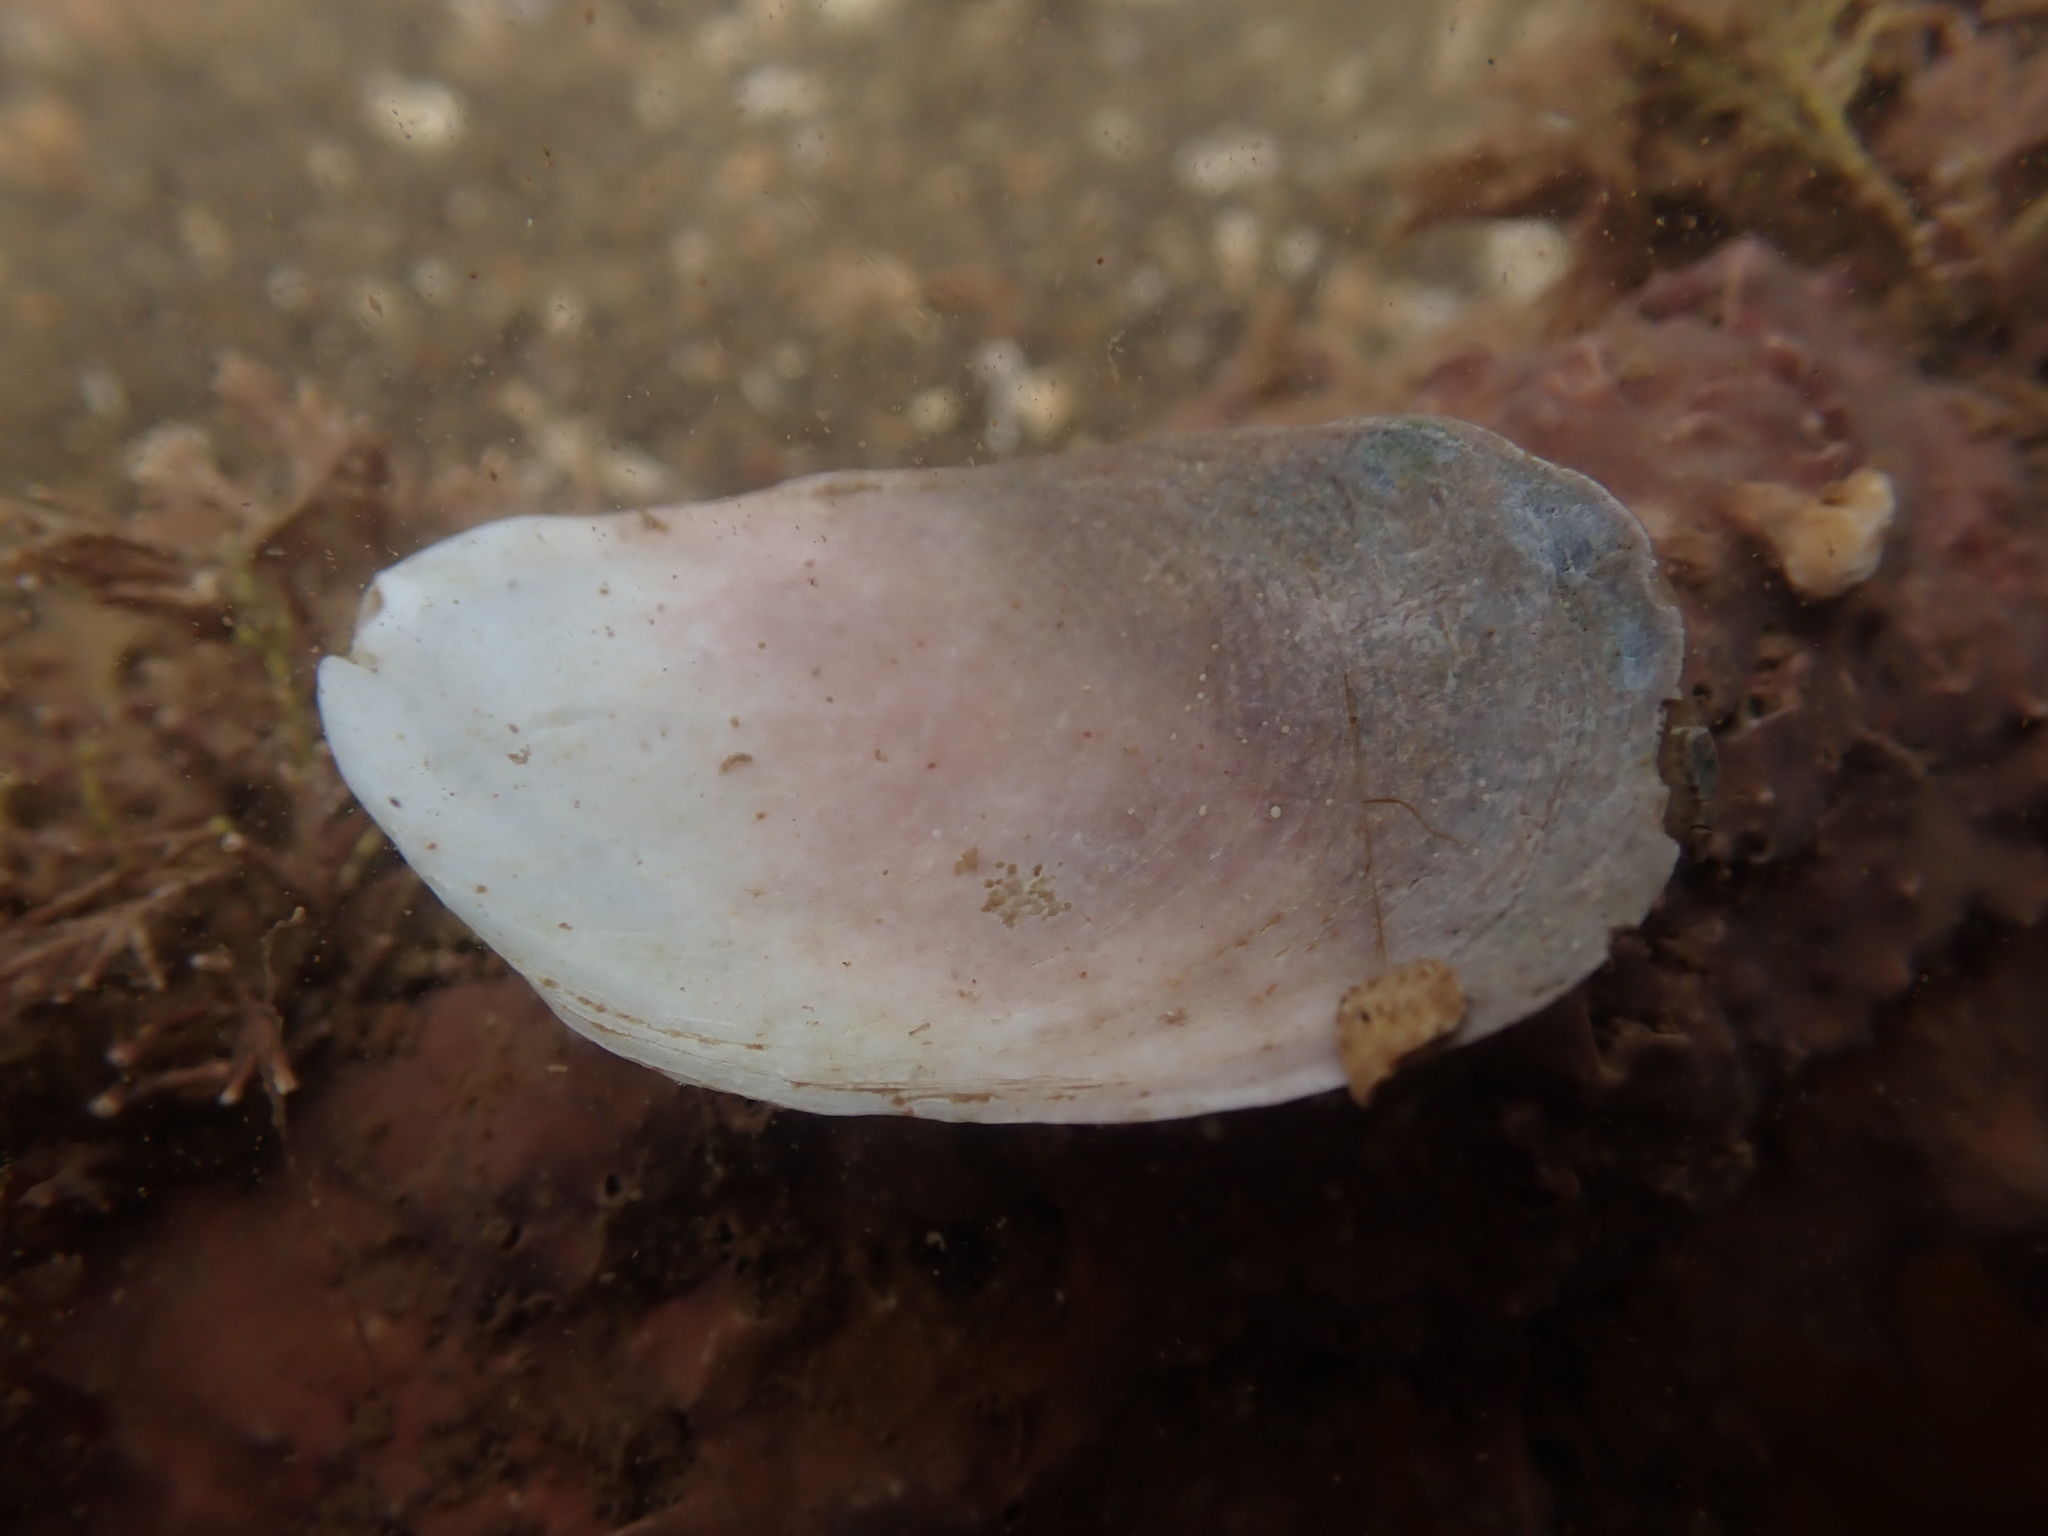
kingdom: Animalia
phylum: Mollusca
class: Gastropoda
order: Littorinimorpha
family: Calyptraeidae
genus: Crepidula
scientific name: Crepidula plana
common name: Eastern white slippersnail
